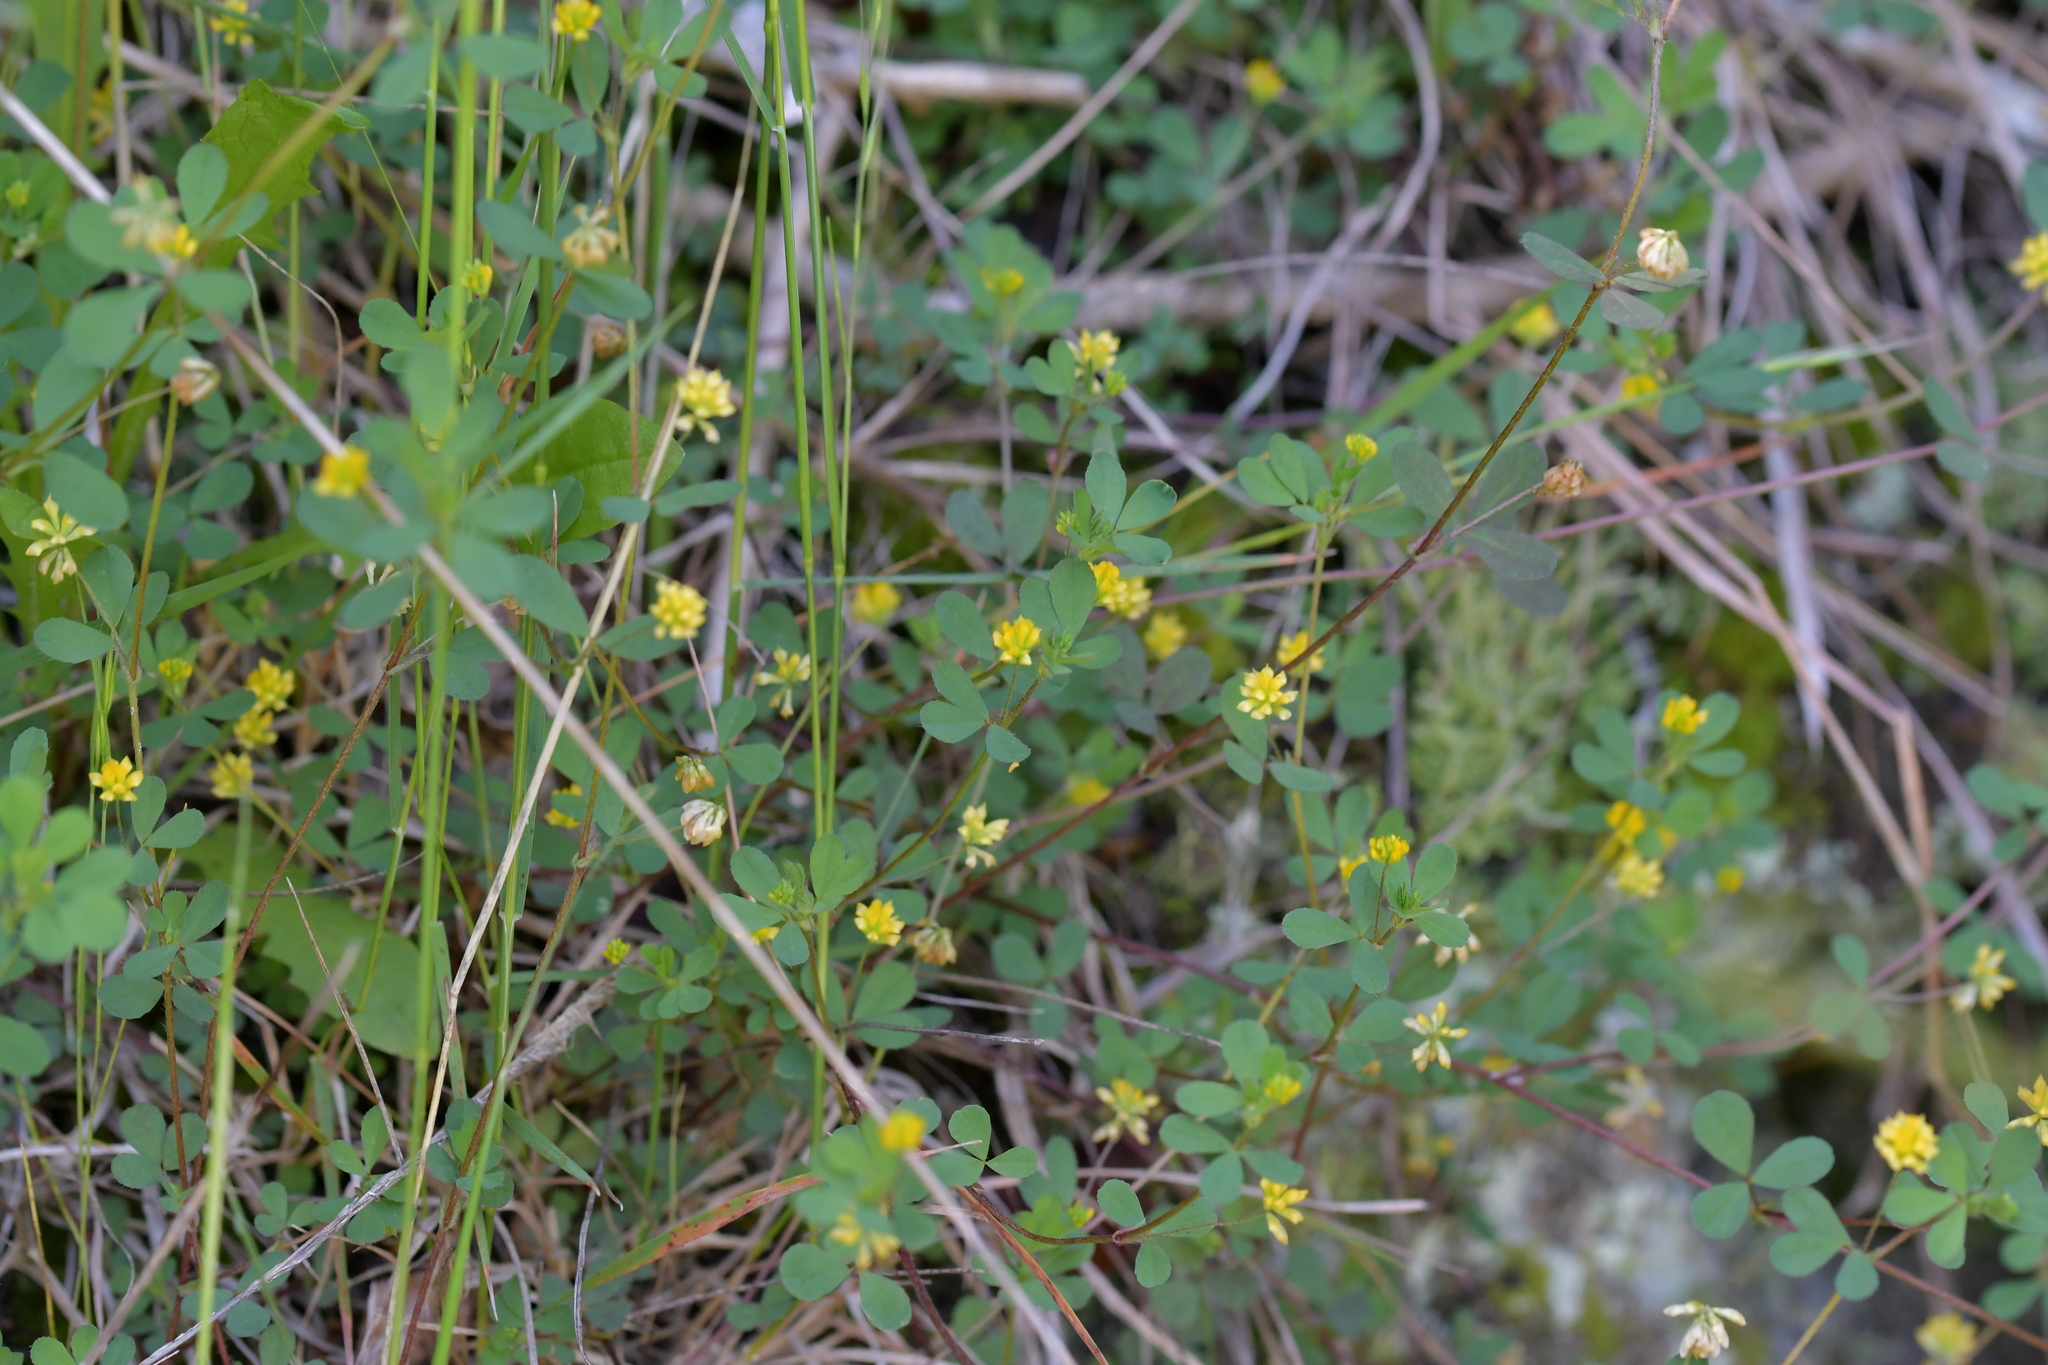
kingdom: Plantae
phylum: Tracheophyta
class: Magnoliopsida
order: Fabales
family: Fabaceae
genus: Trifolium
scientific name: Trifolium dubium
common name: Suckling clover
